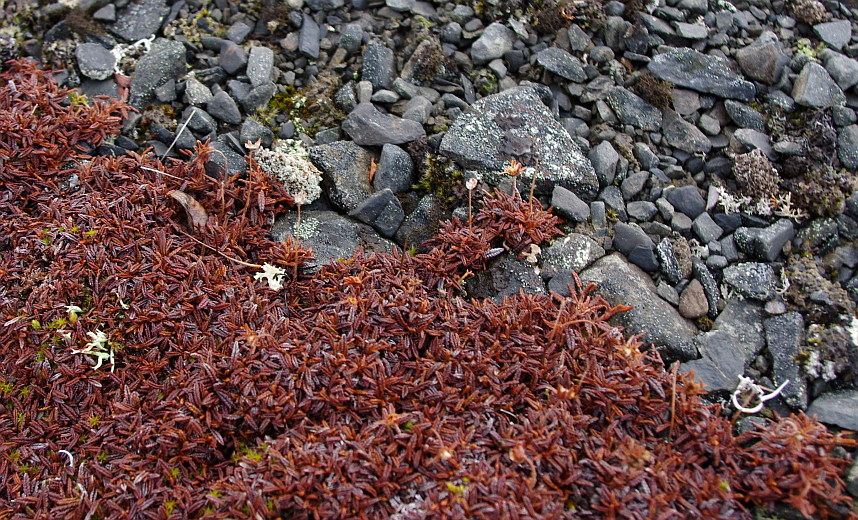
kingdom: Plantae
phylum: Tracheophyta
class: Magnoliopsida
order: Rosales
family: Rosaceae
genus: Dryas
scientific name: Dryas octopetala
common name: Eight-petal mountain-avens
